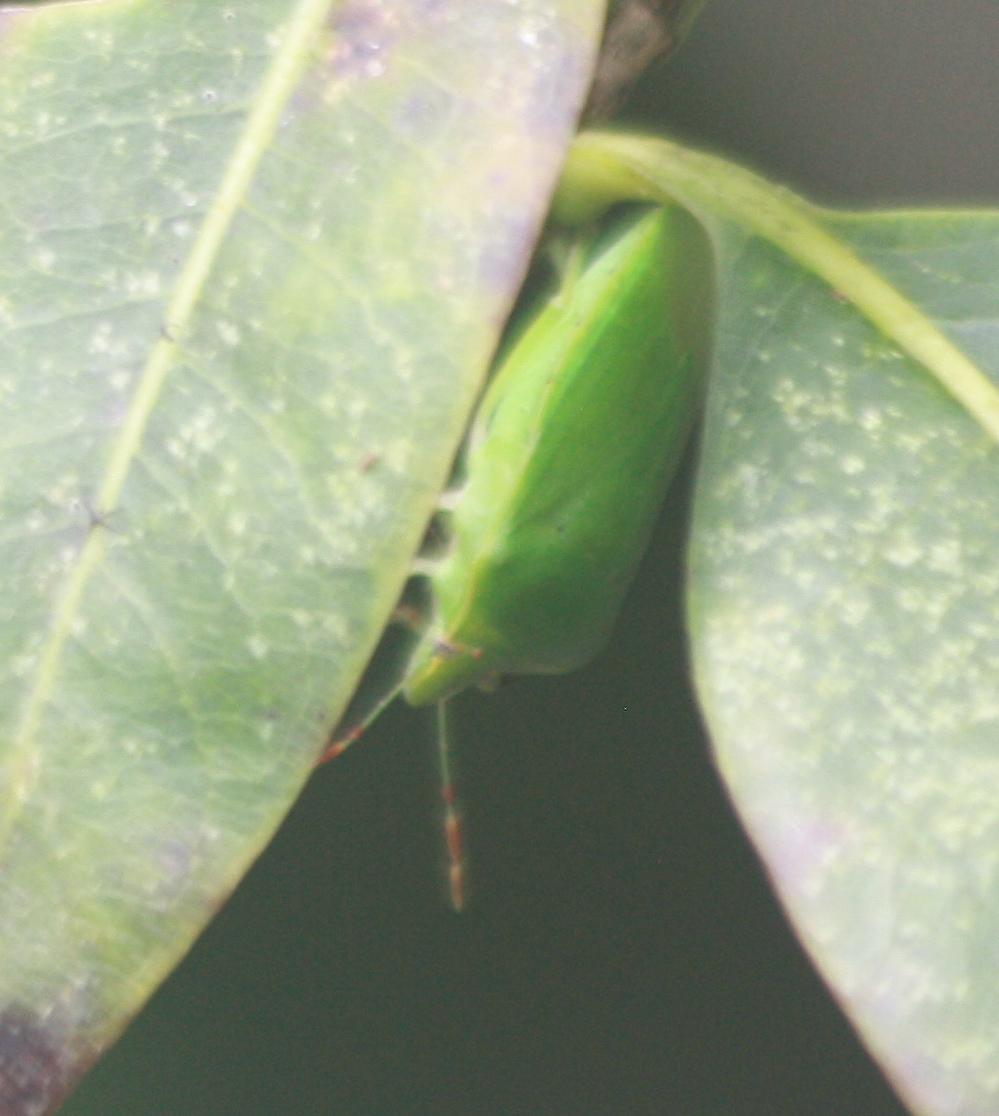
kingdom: Animalia
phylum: Arthropoda
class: Insecta
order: Hemiptera
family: Pentatomidae
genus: Nezara
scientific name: Nezara viridula
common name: Southern green stink bug
